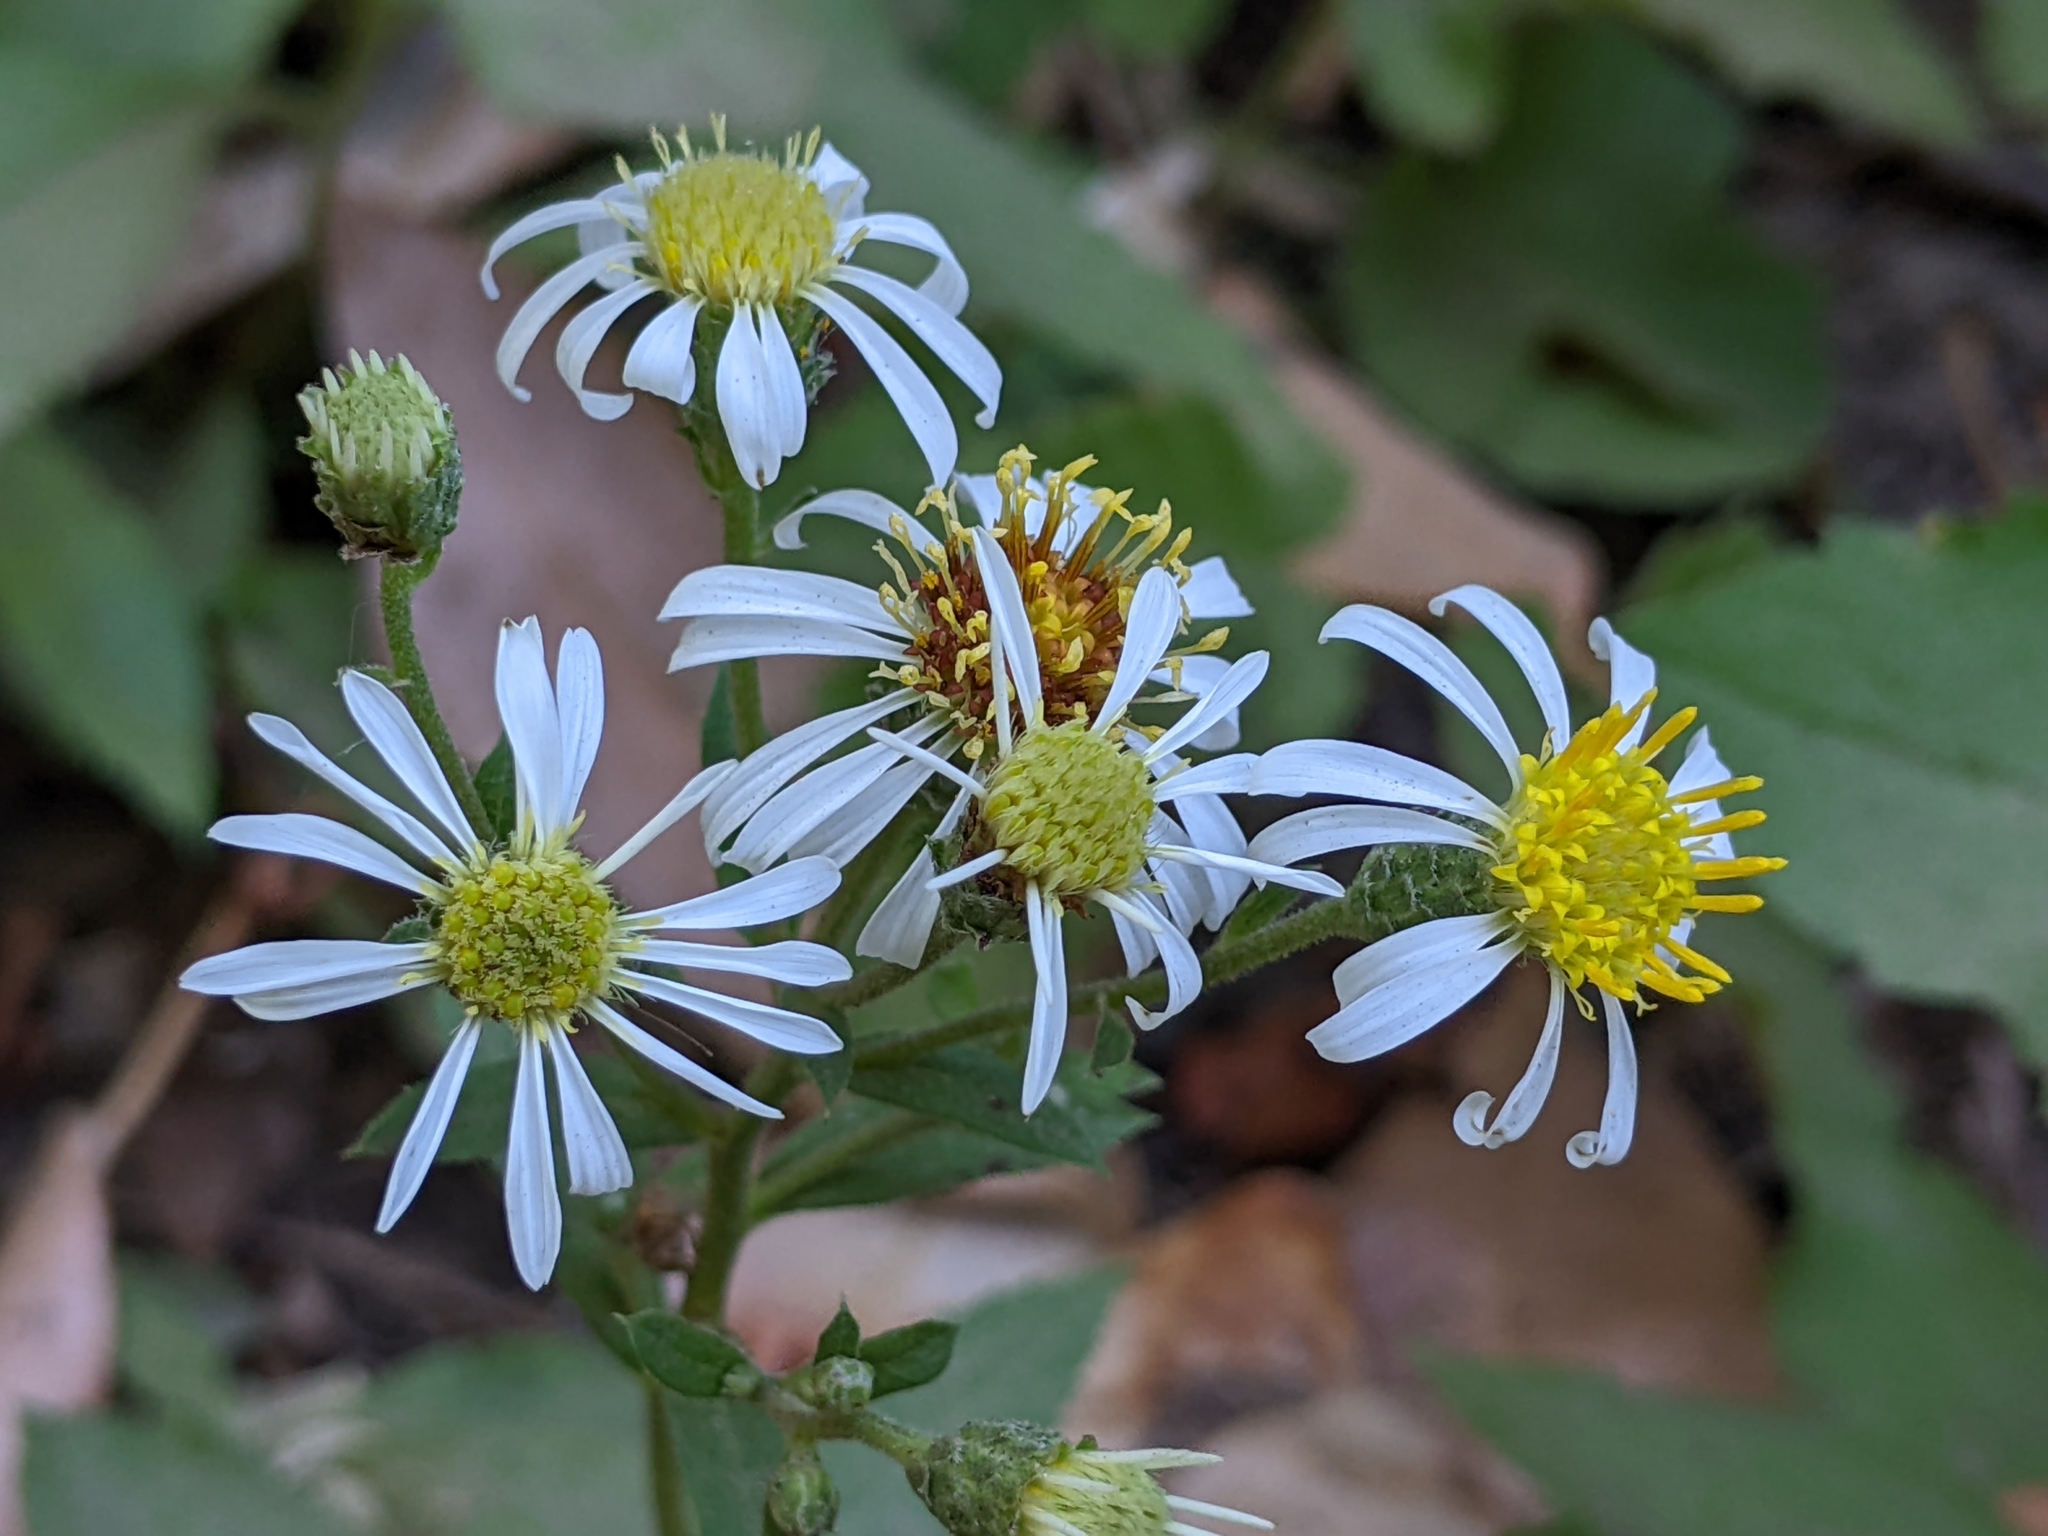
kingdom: Plantae
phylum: Tracheophyta
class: Magnoliopsida
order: Asterales
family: Asteraceae
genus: Eurybia
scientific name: Eurybia radulina
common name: Rough-leaved aster
